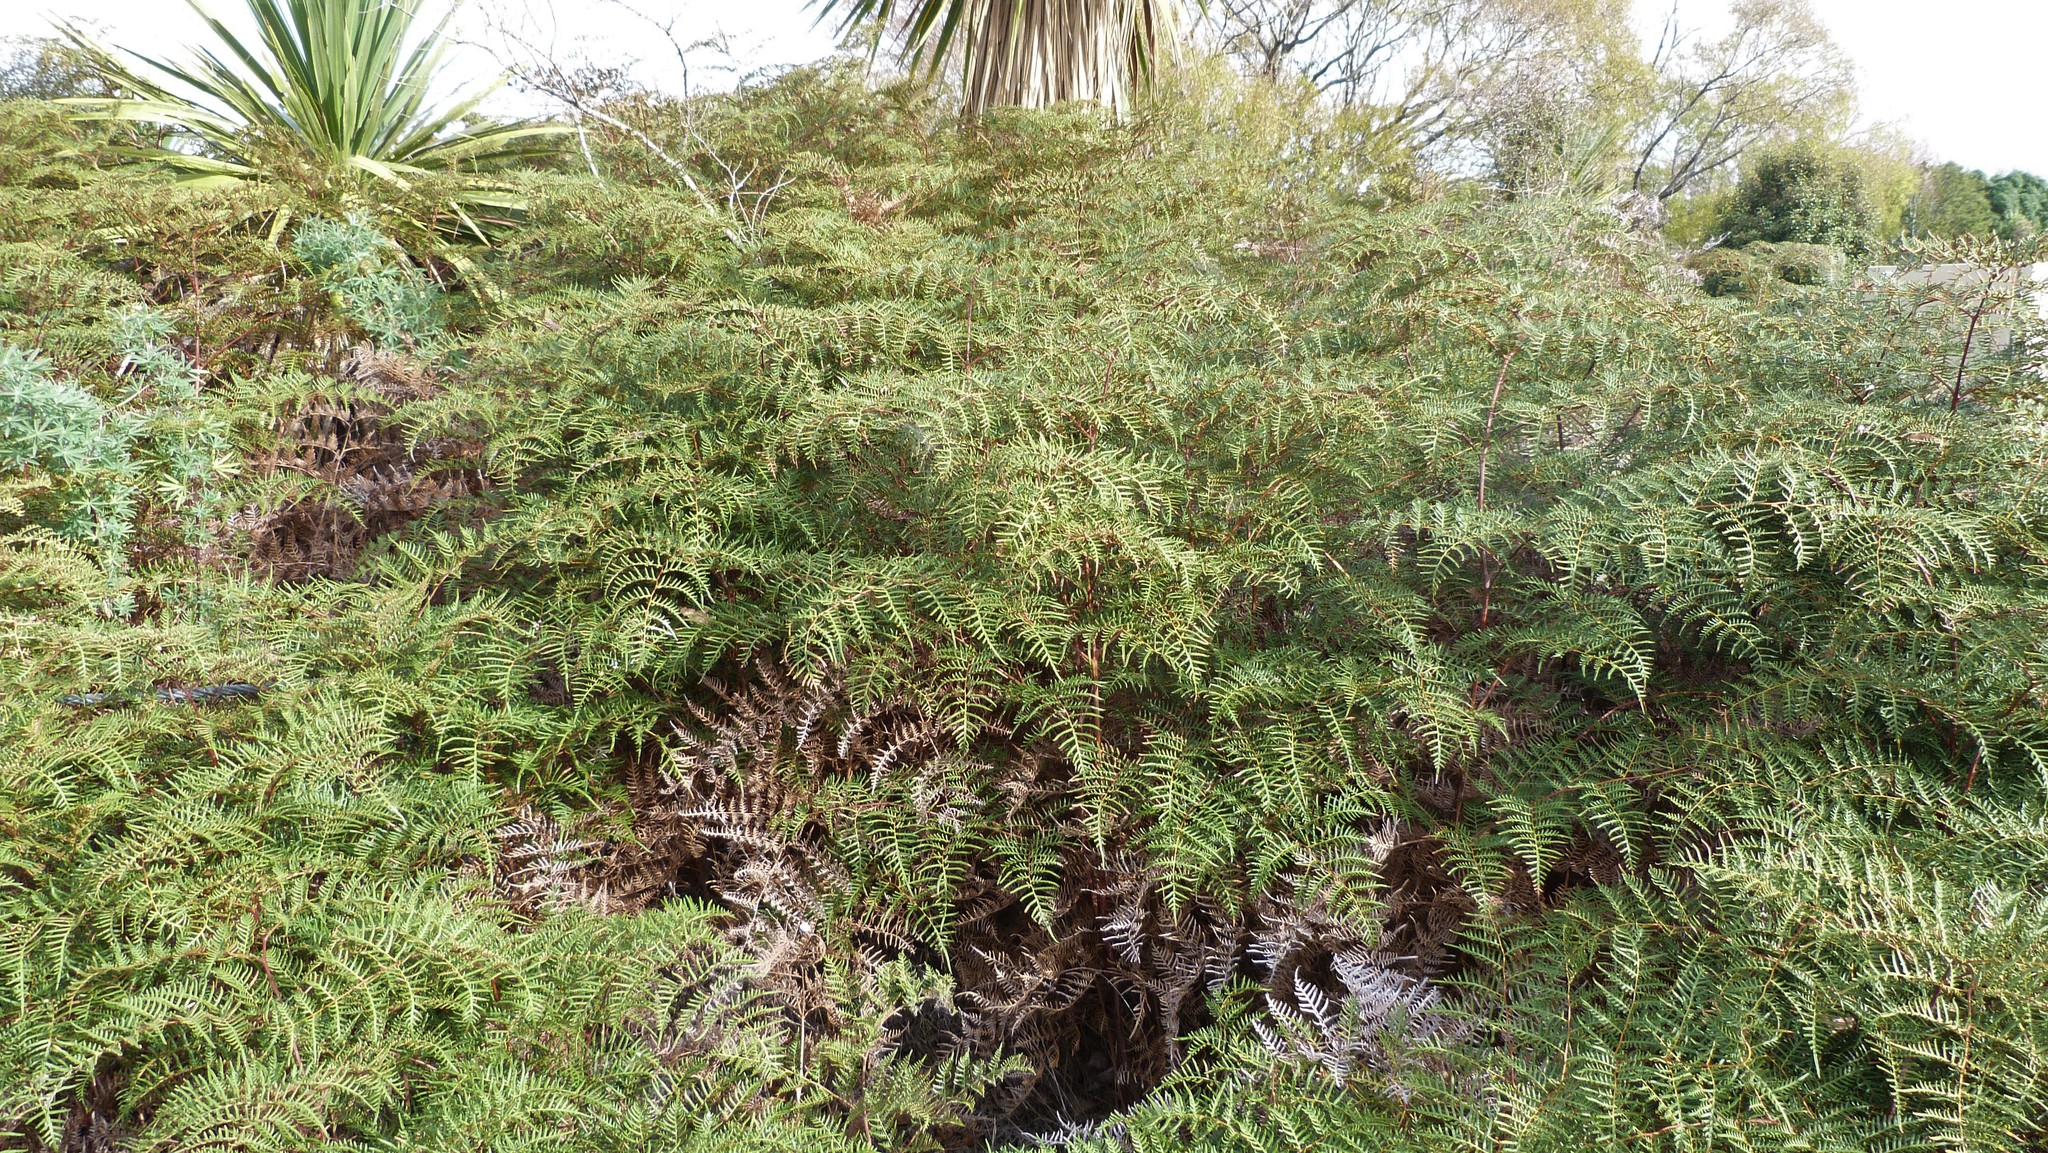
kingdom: Plantae
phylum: Tracheophyta
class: Polypodiopsida
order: Polypodiales
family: Dennstaedtiaceae
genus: Pteridium
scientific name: Pteridium esculentum
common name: Bracken fern
